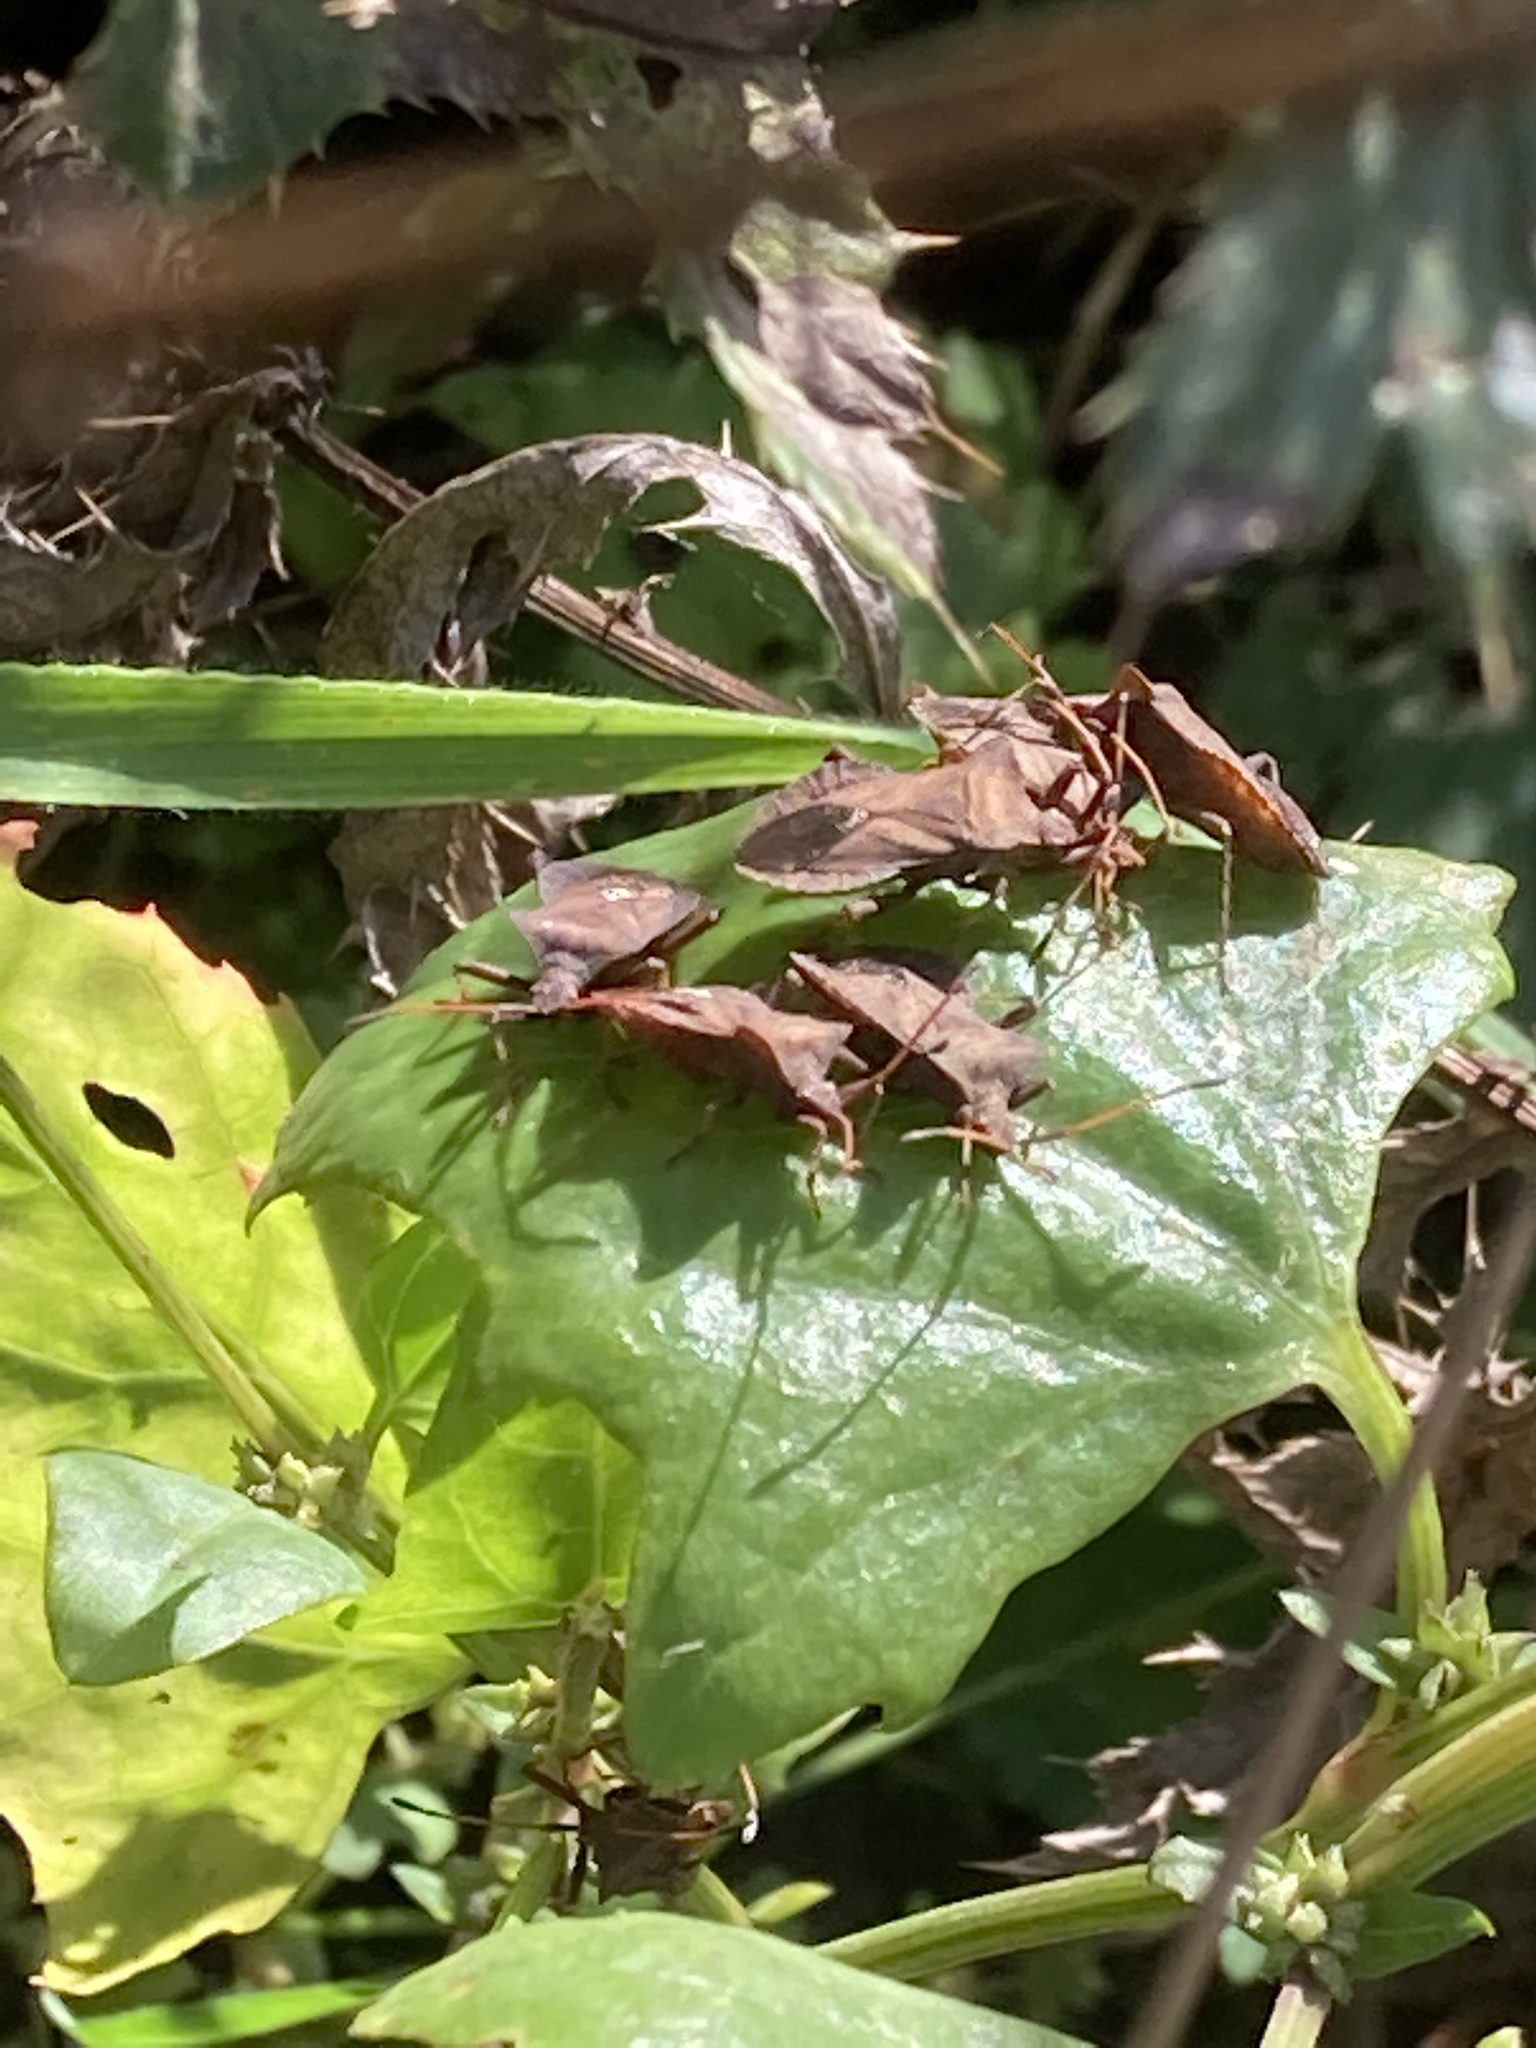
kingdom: Animalia
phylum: Arthropoda
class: Insecta
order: Hemiptera
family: Coreidae
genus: Coreus
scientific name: Coreus marginatus
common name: Dock bug
